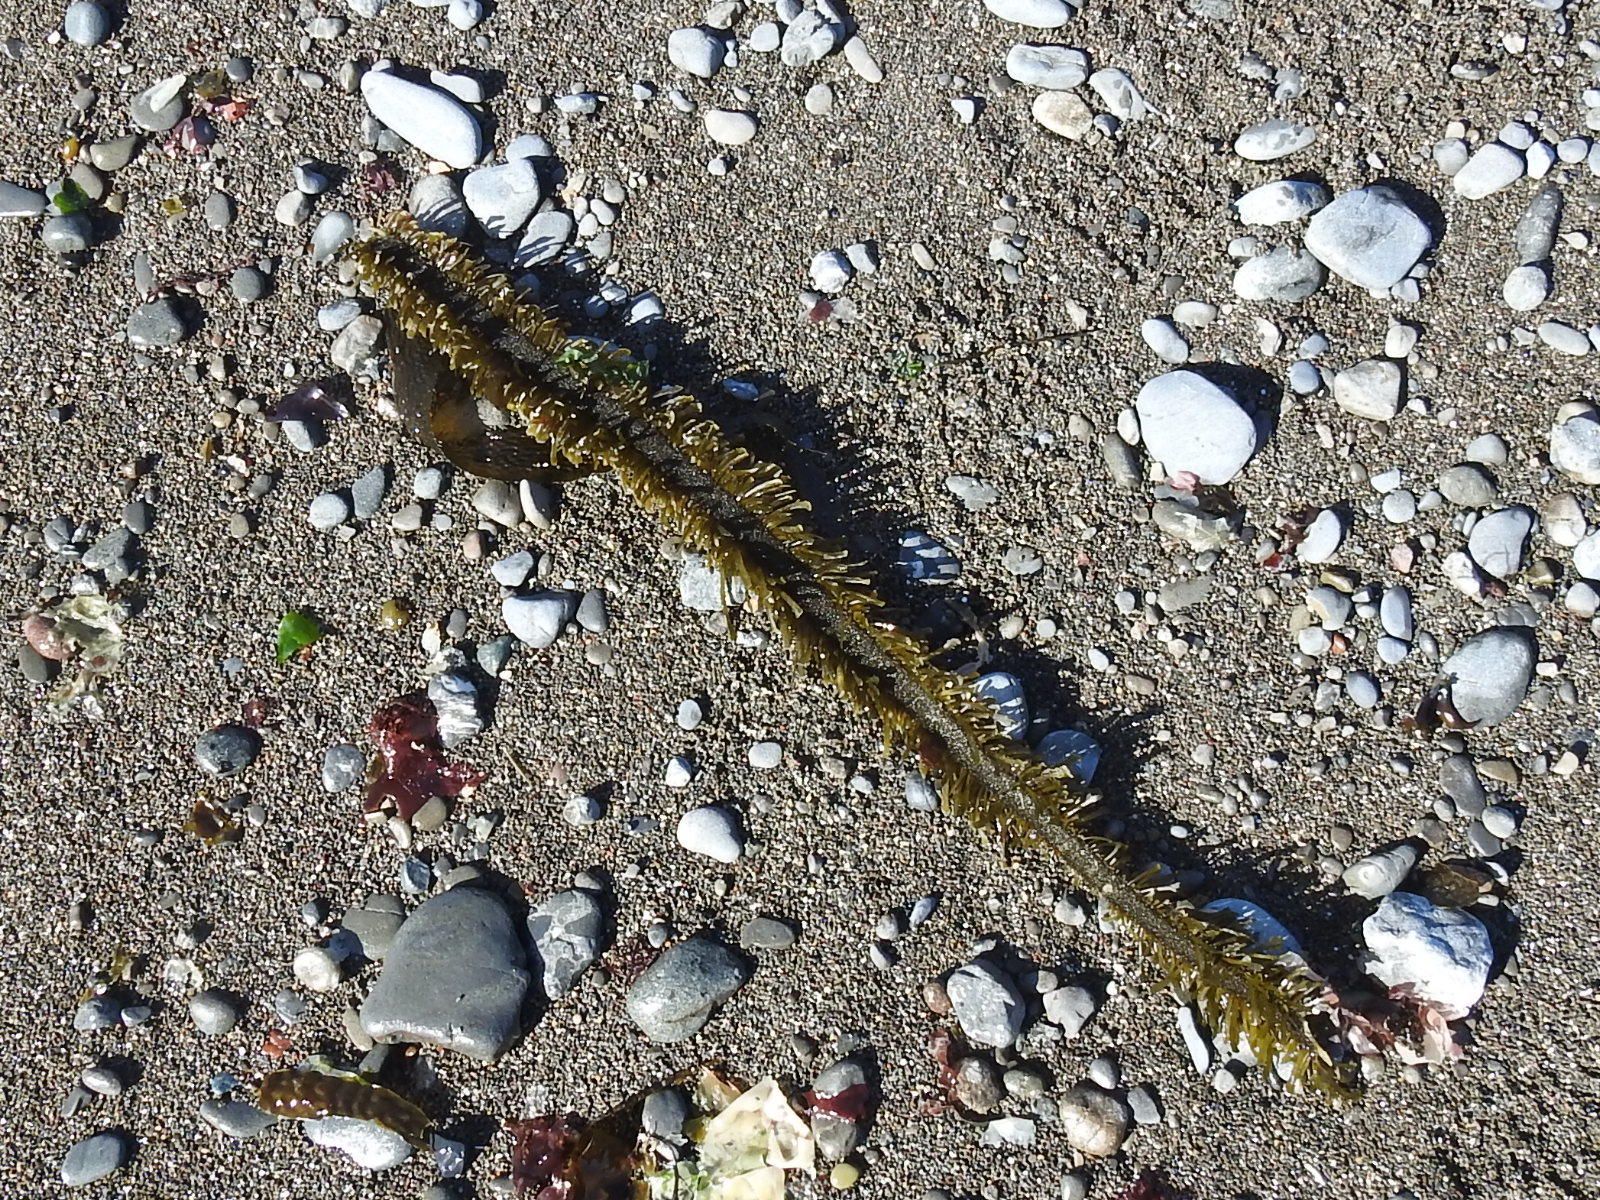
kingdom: Chromista
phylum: Ochrophyta
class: Phaeophyceae
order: Laminariales
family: Lessoniaceae
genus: Egregia
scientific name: Egregia menziesii
